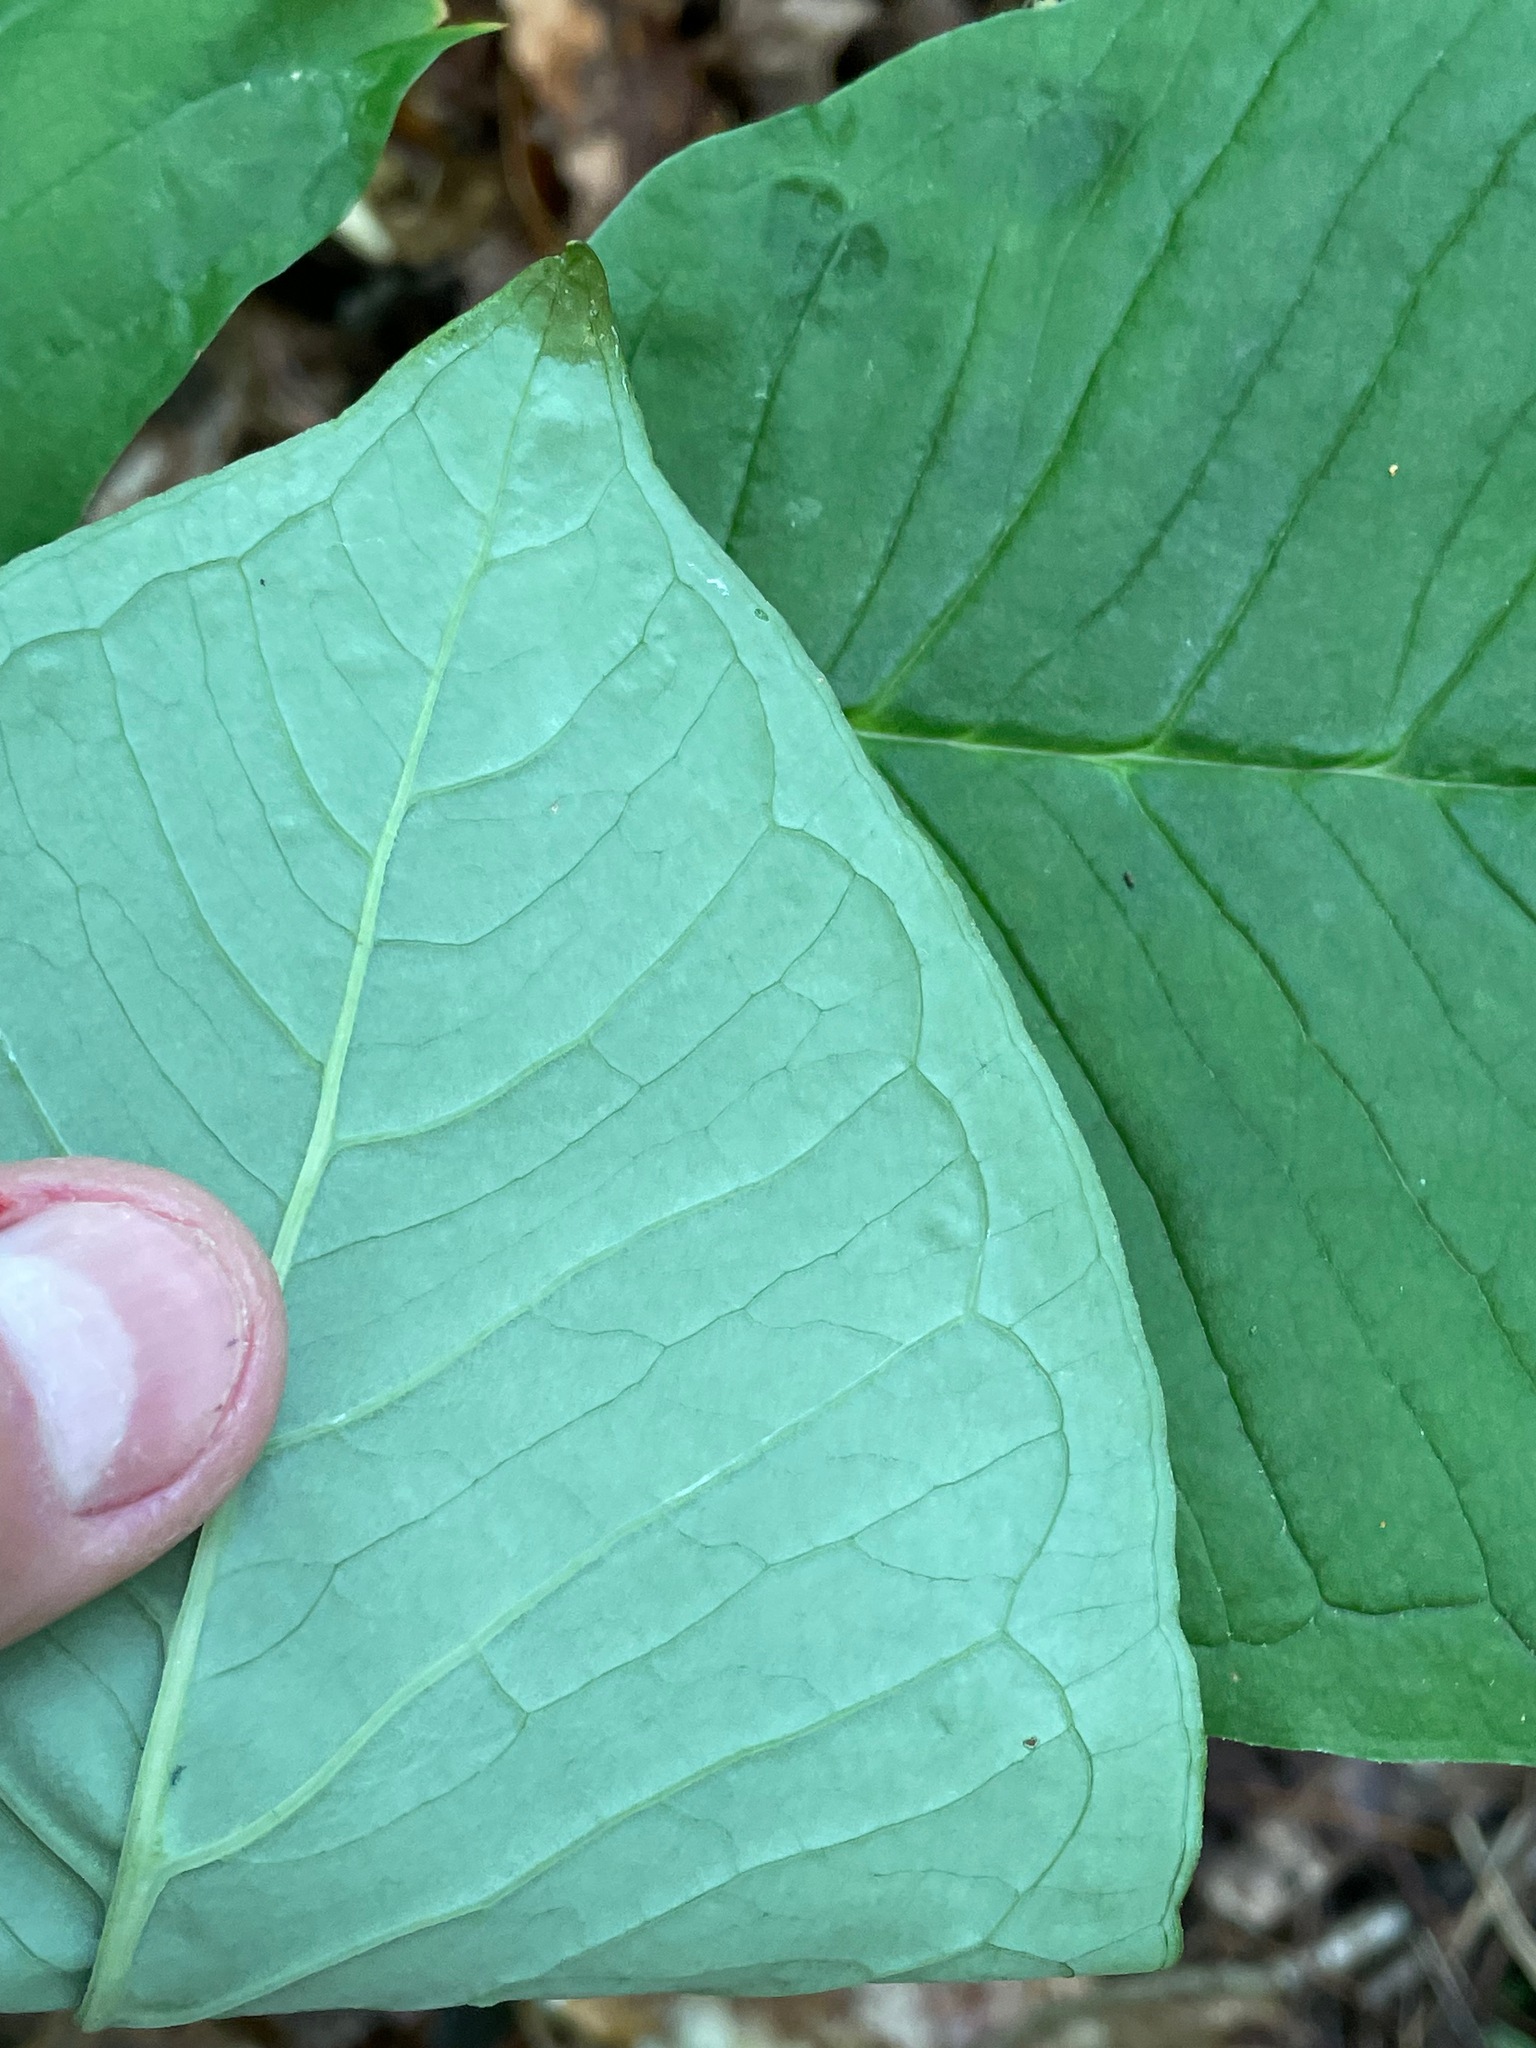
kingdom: Plantae
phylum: Tracheophyta
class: Liliopsida
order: Alismatales
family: Araceae
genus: Arisaema
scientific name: Arisaema triphyllum
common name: Jack-in-the-pulpit
